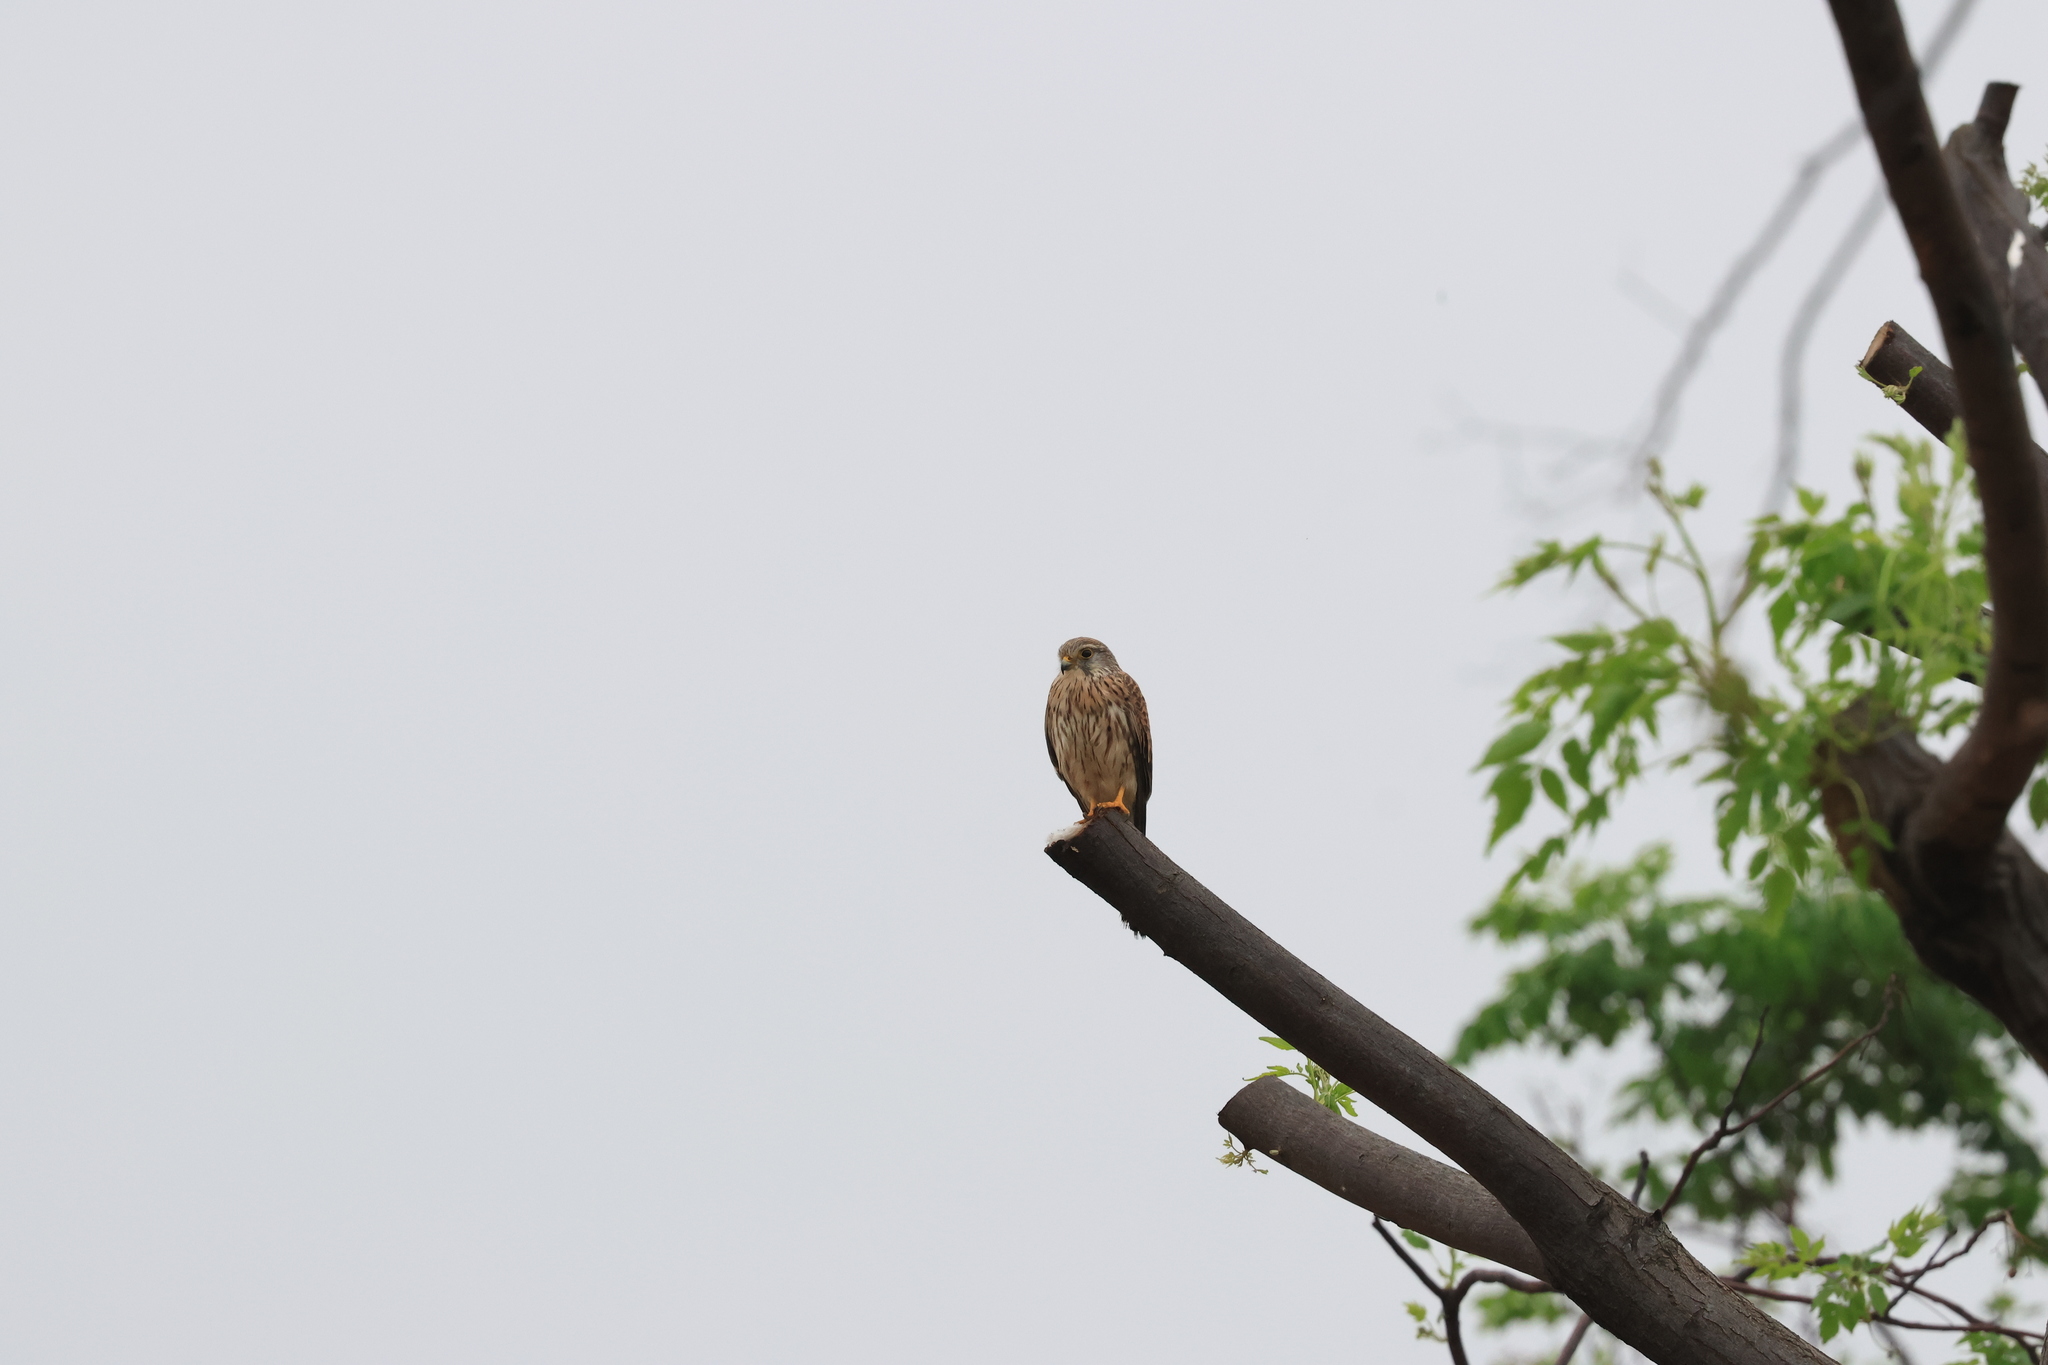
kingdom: Animalia
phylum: Chordata
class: Aves
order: Falconiformes
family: Falconidae
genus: Falco
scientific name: Falco tinnunculus
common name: Common kestrel
